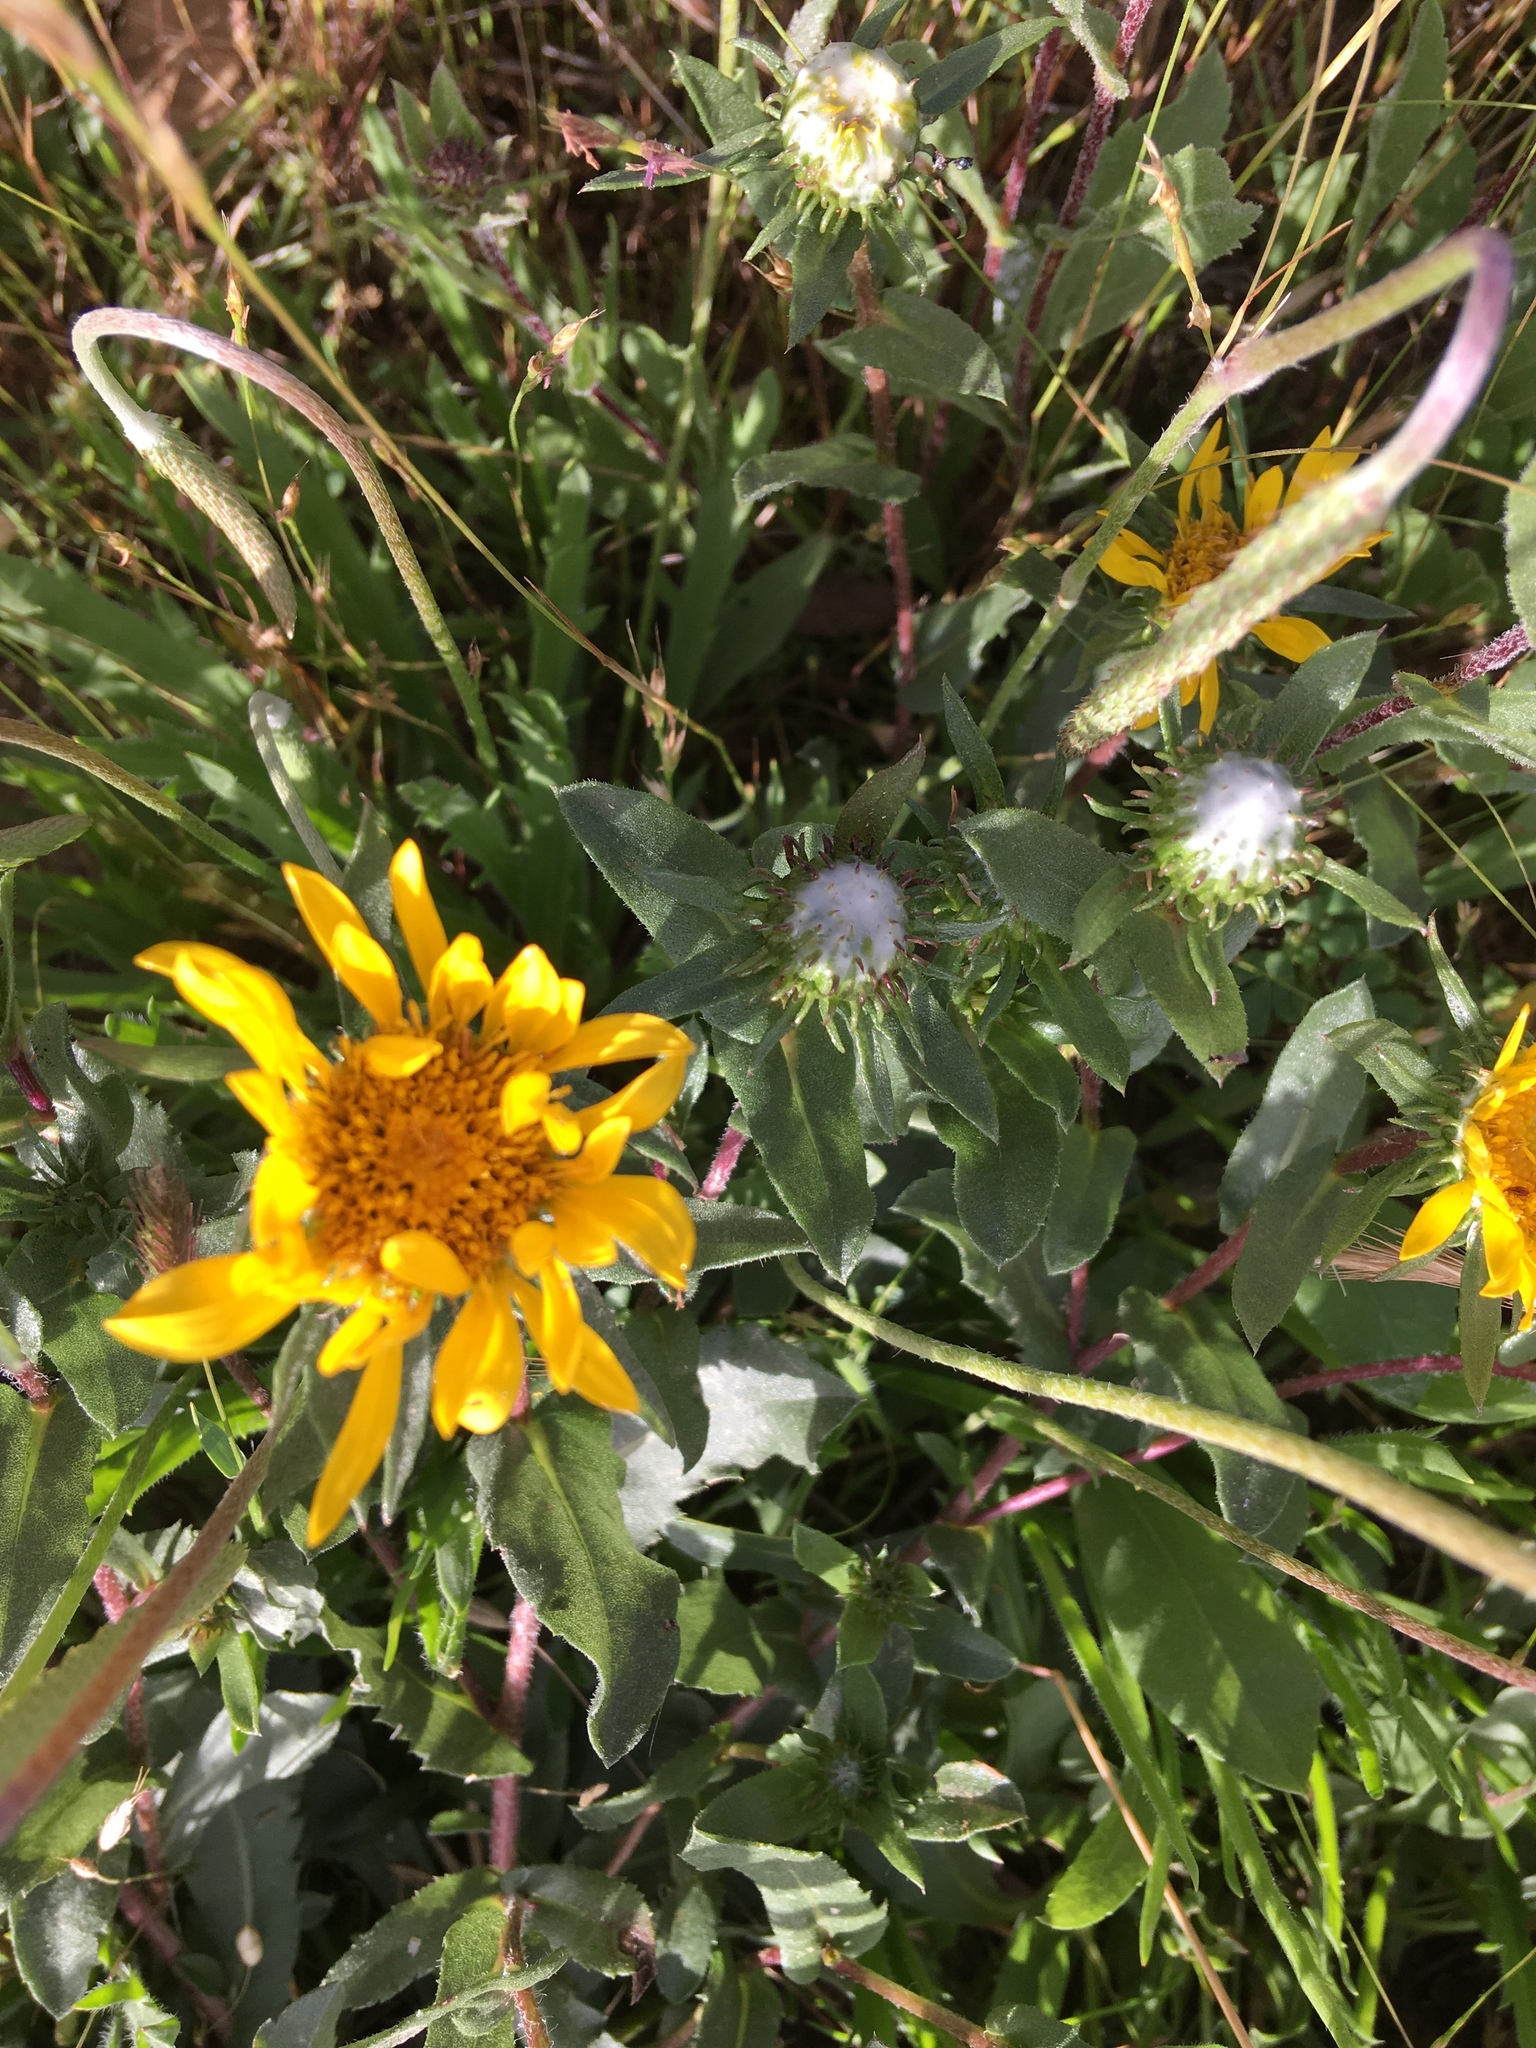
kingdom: Plantae
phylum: Tracheophyta
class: Magnoliopsida
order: Asterales
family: Asteraceae
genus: Grindelia
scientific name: Grindelia hirsutula
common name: Hairy gumweed
